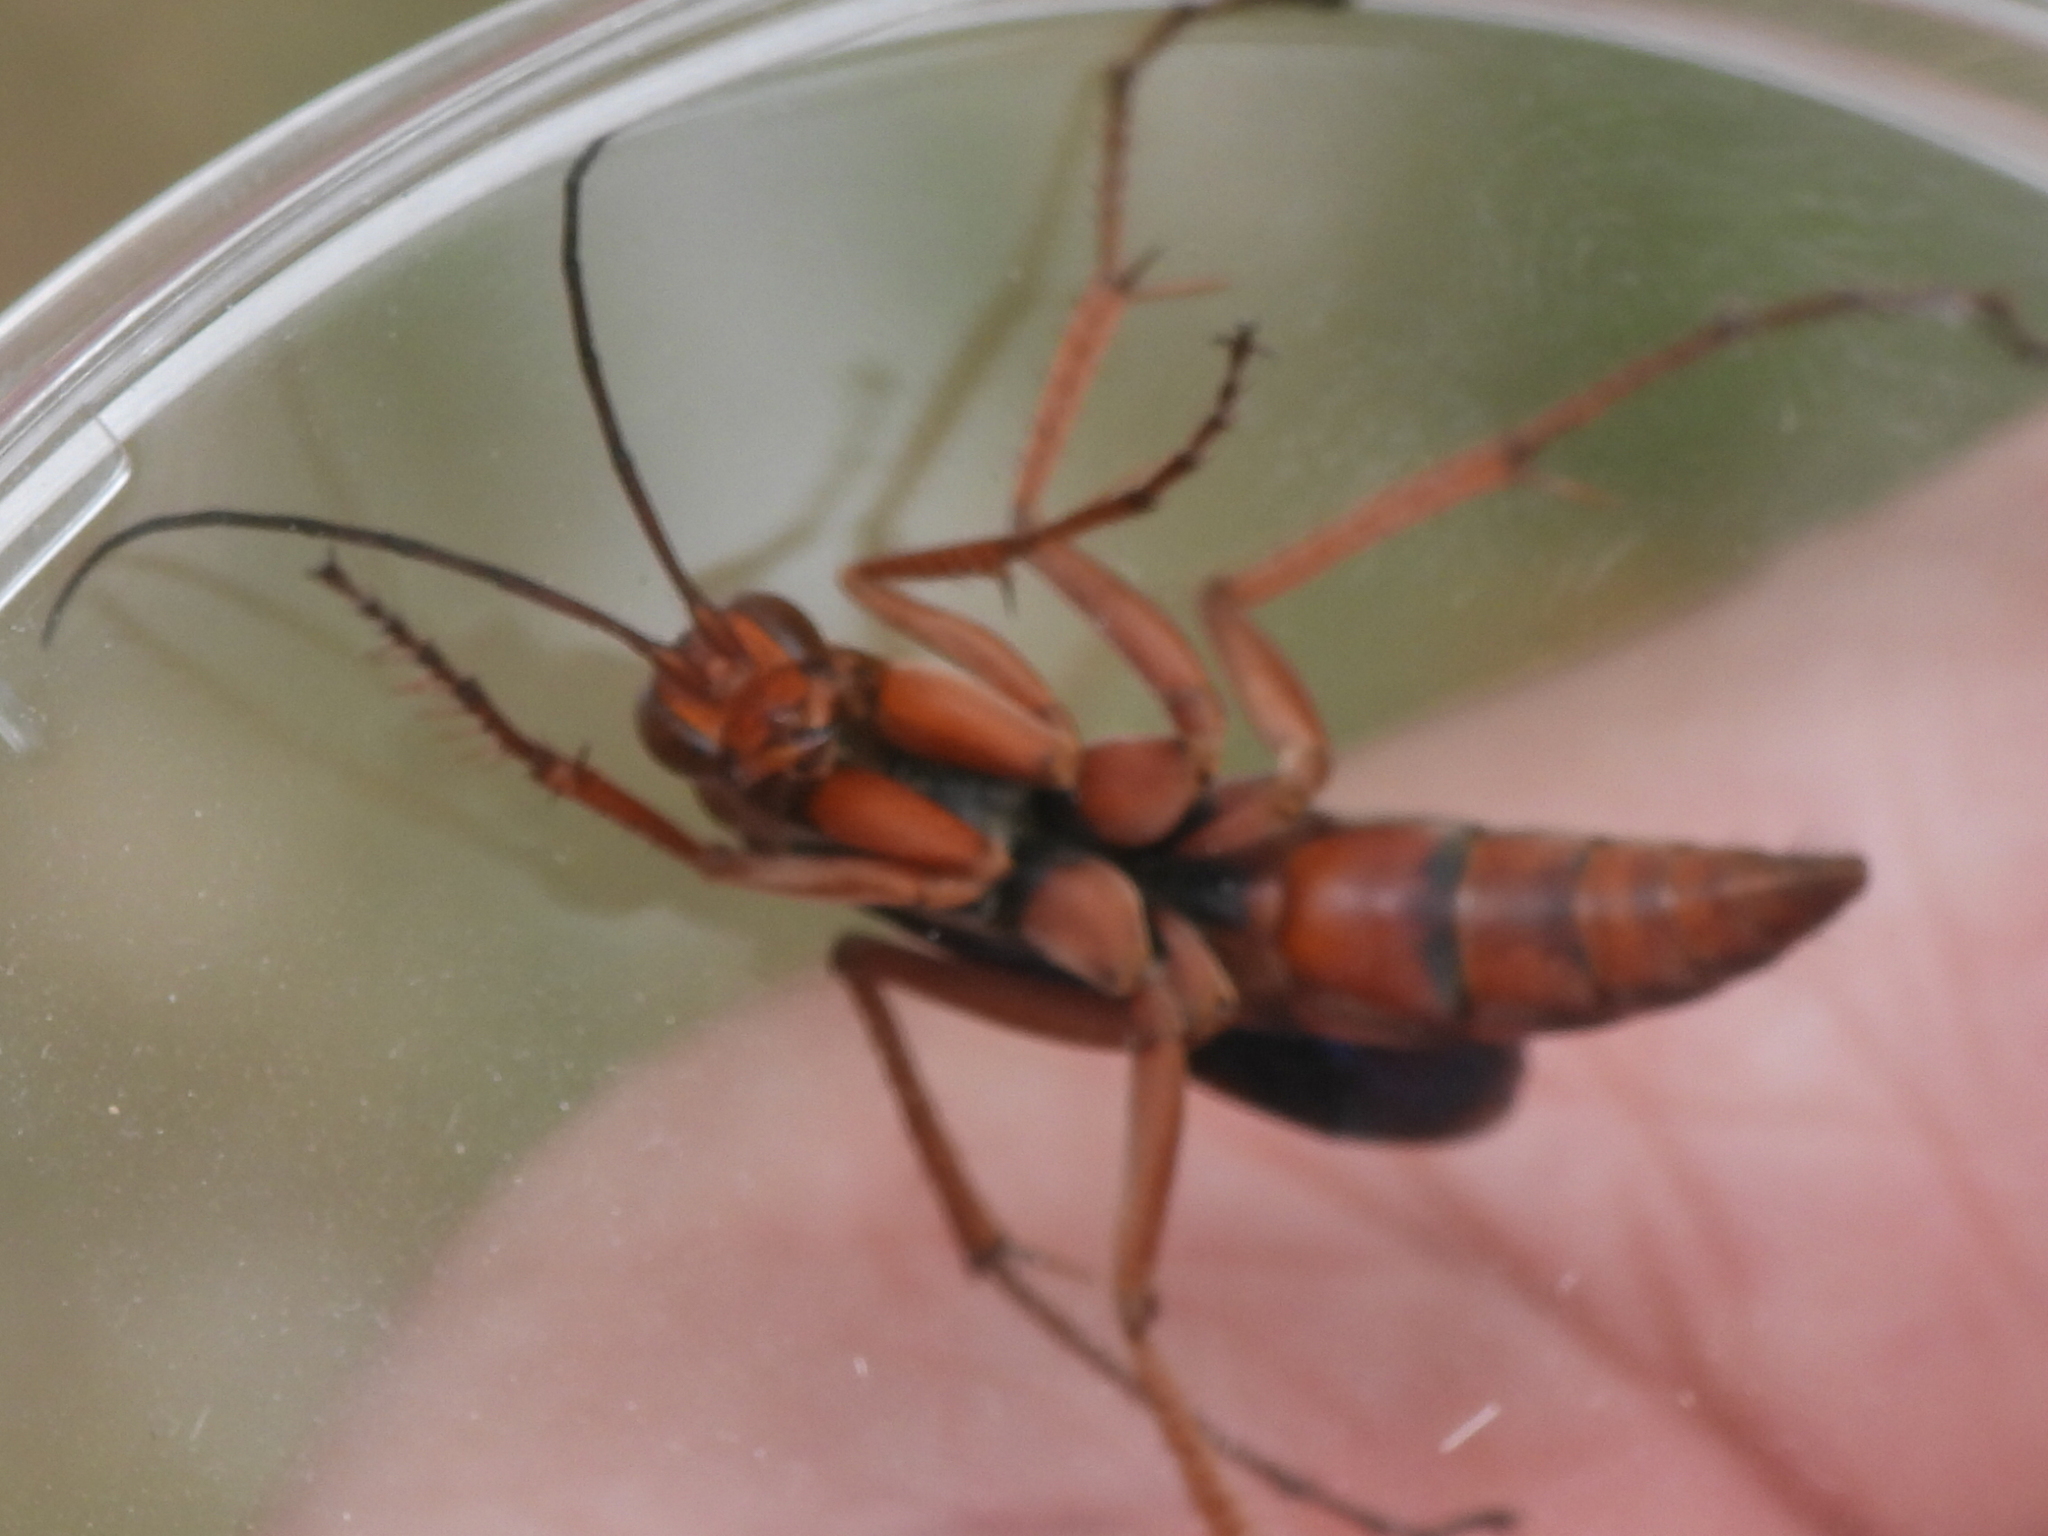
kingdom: Animalia
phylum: Arthropoda
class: Insecta
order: Hymenoptera
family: Pompilidae
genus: Tachypompilus
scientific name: Tachypompilus ferrugineus
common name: Rusty spider wasp
